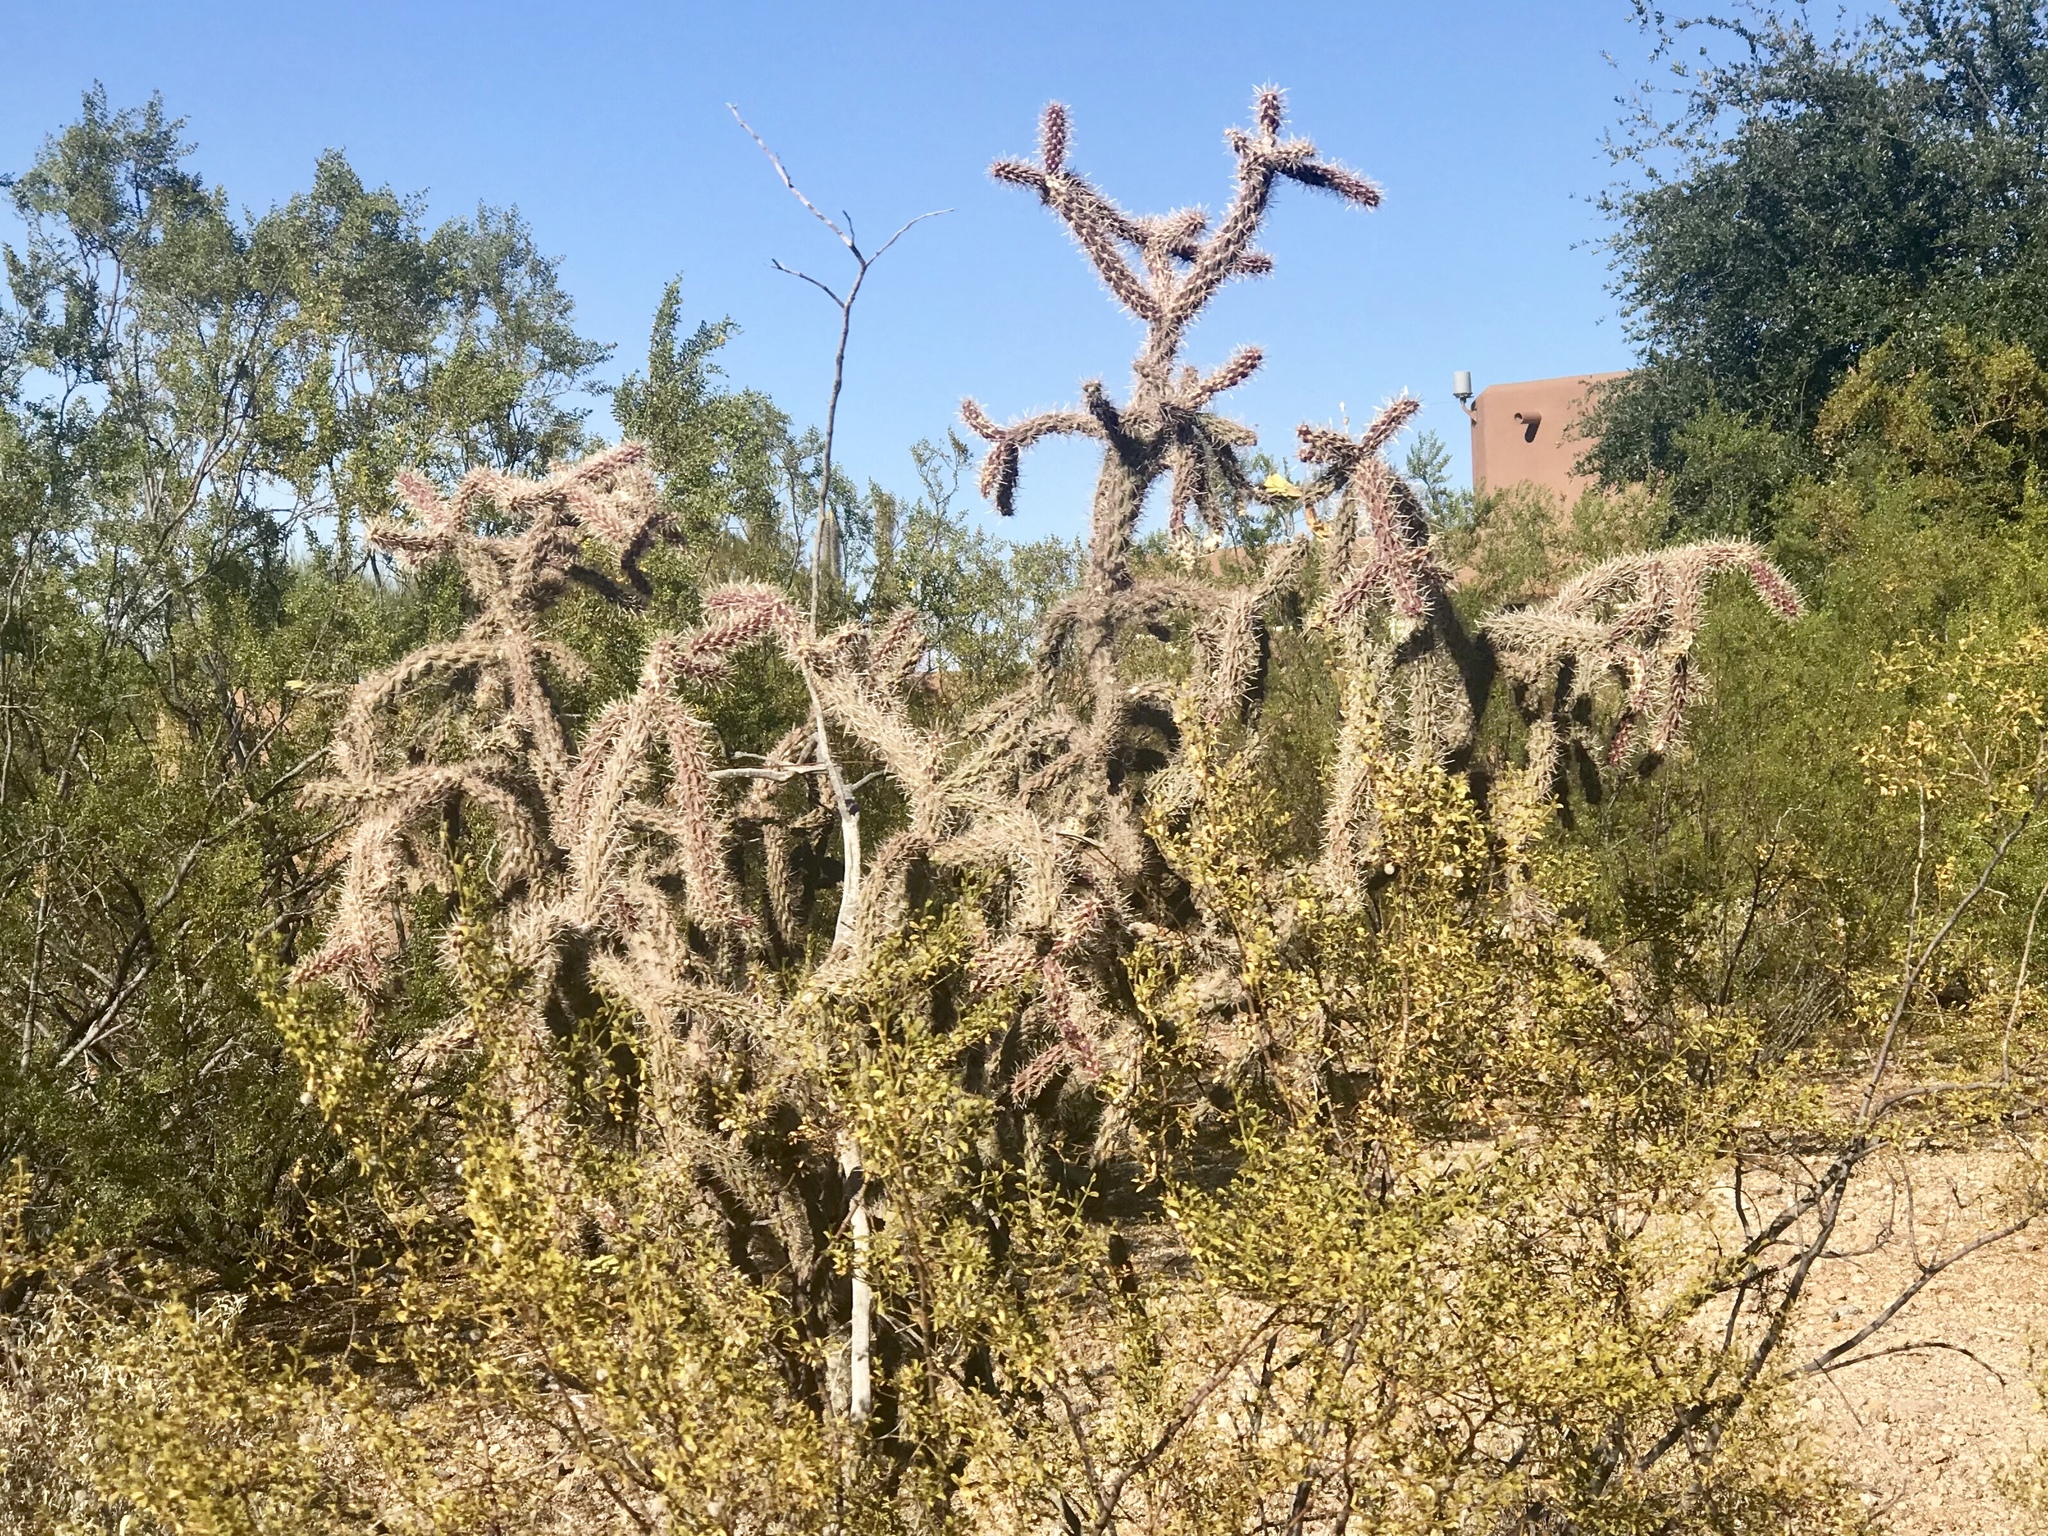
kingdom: Plantae
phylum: Tracheophyta
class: Magnoliopsida
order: Caryophyllales
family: Cactaceae
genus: Cylindropuntia
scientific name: Cylindropuntia imbricata
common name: Candelabrum cactus
